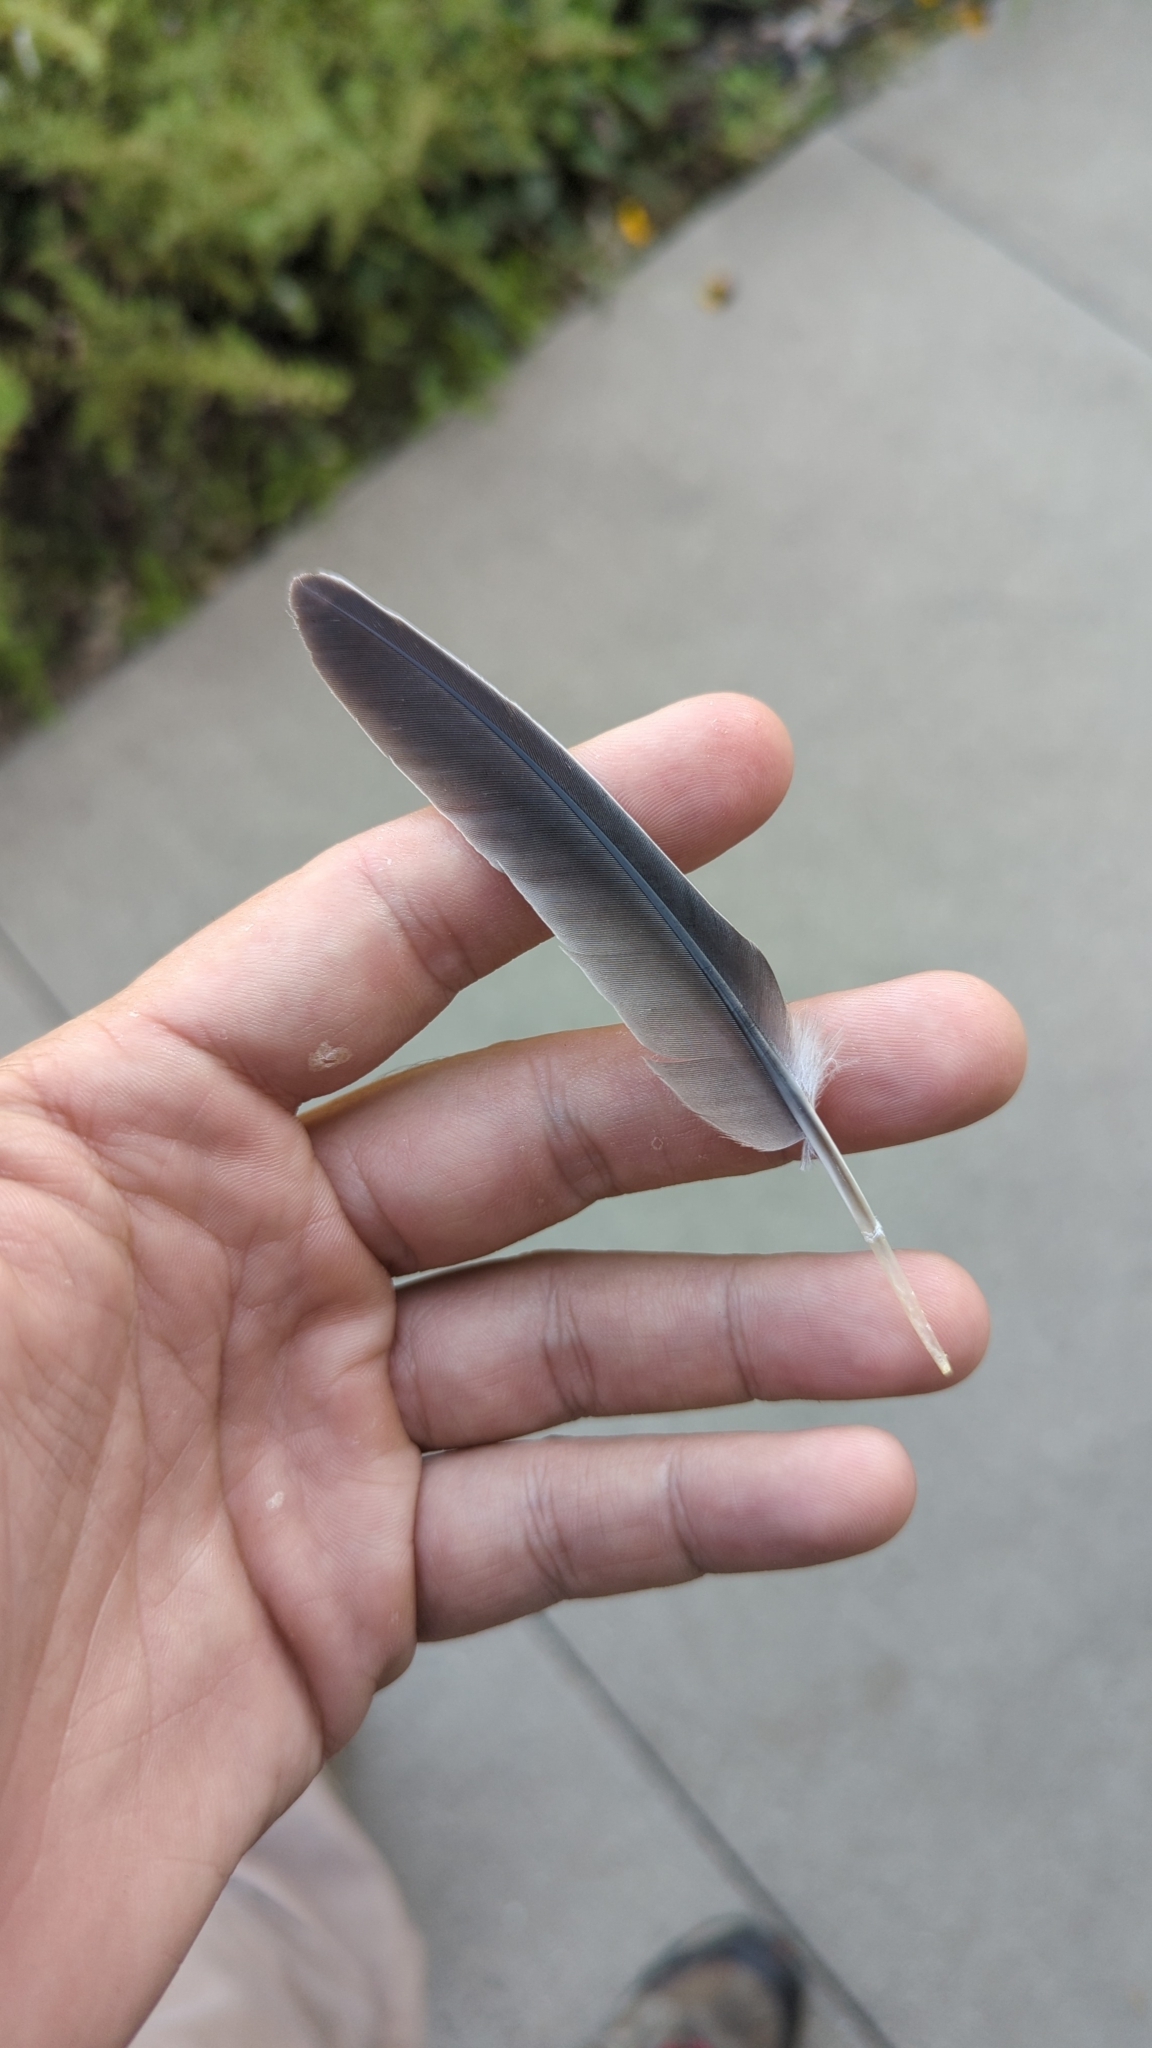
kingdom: Animalia
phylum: Chordata
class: Aves
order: Columbiformes
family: Columbidae
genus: Zenaida
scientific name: Zenaida macroura
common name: Mourning dove
